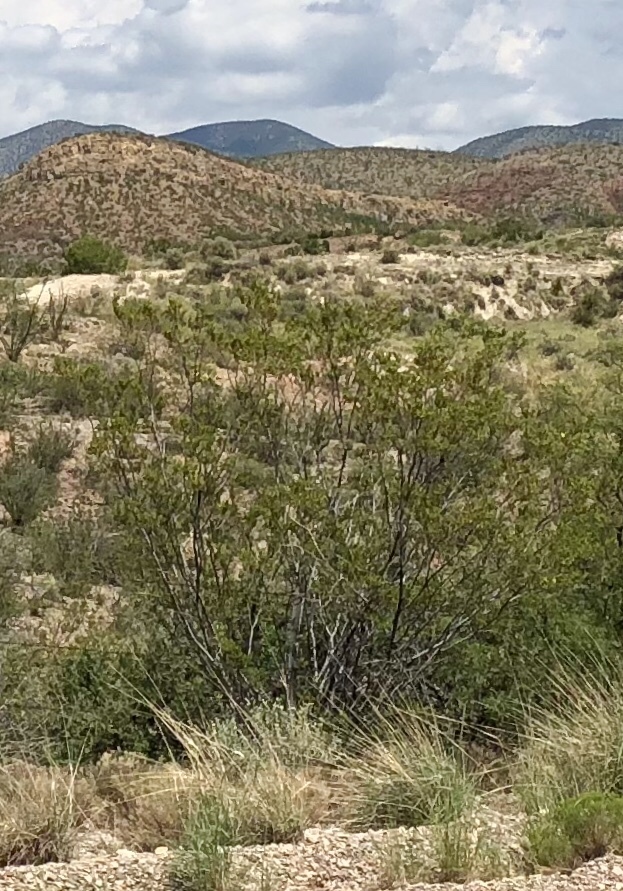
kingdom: Plantae
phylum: Tracheophyta
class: Magnoliopsida
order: Zygophyllales
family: Zygophyllaceae
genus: Larrea
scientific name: Larrea tridentata
